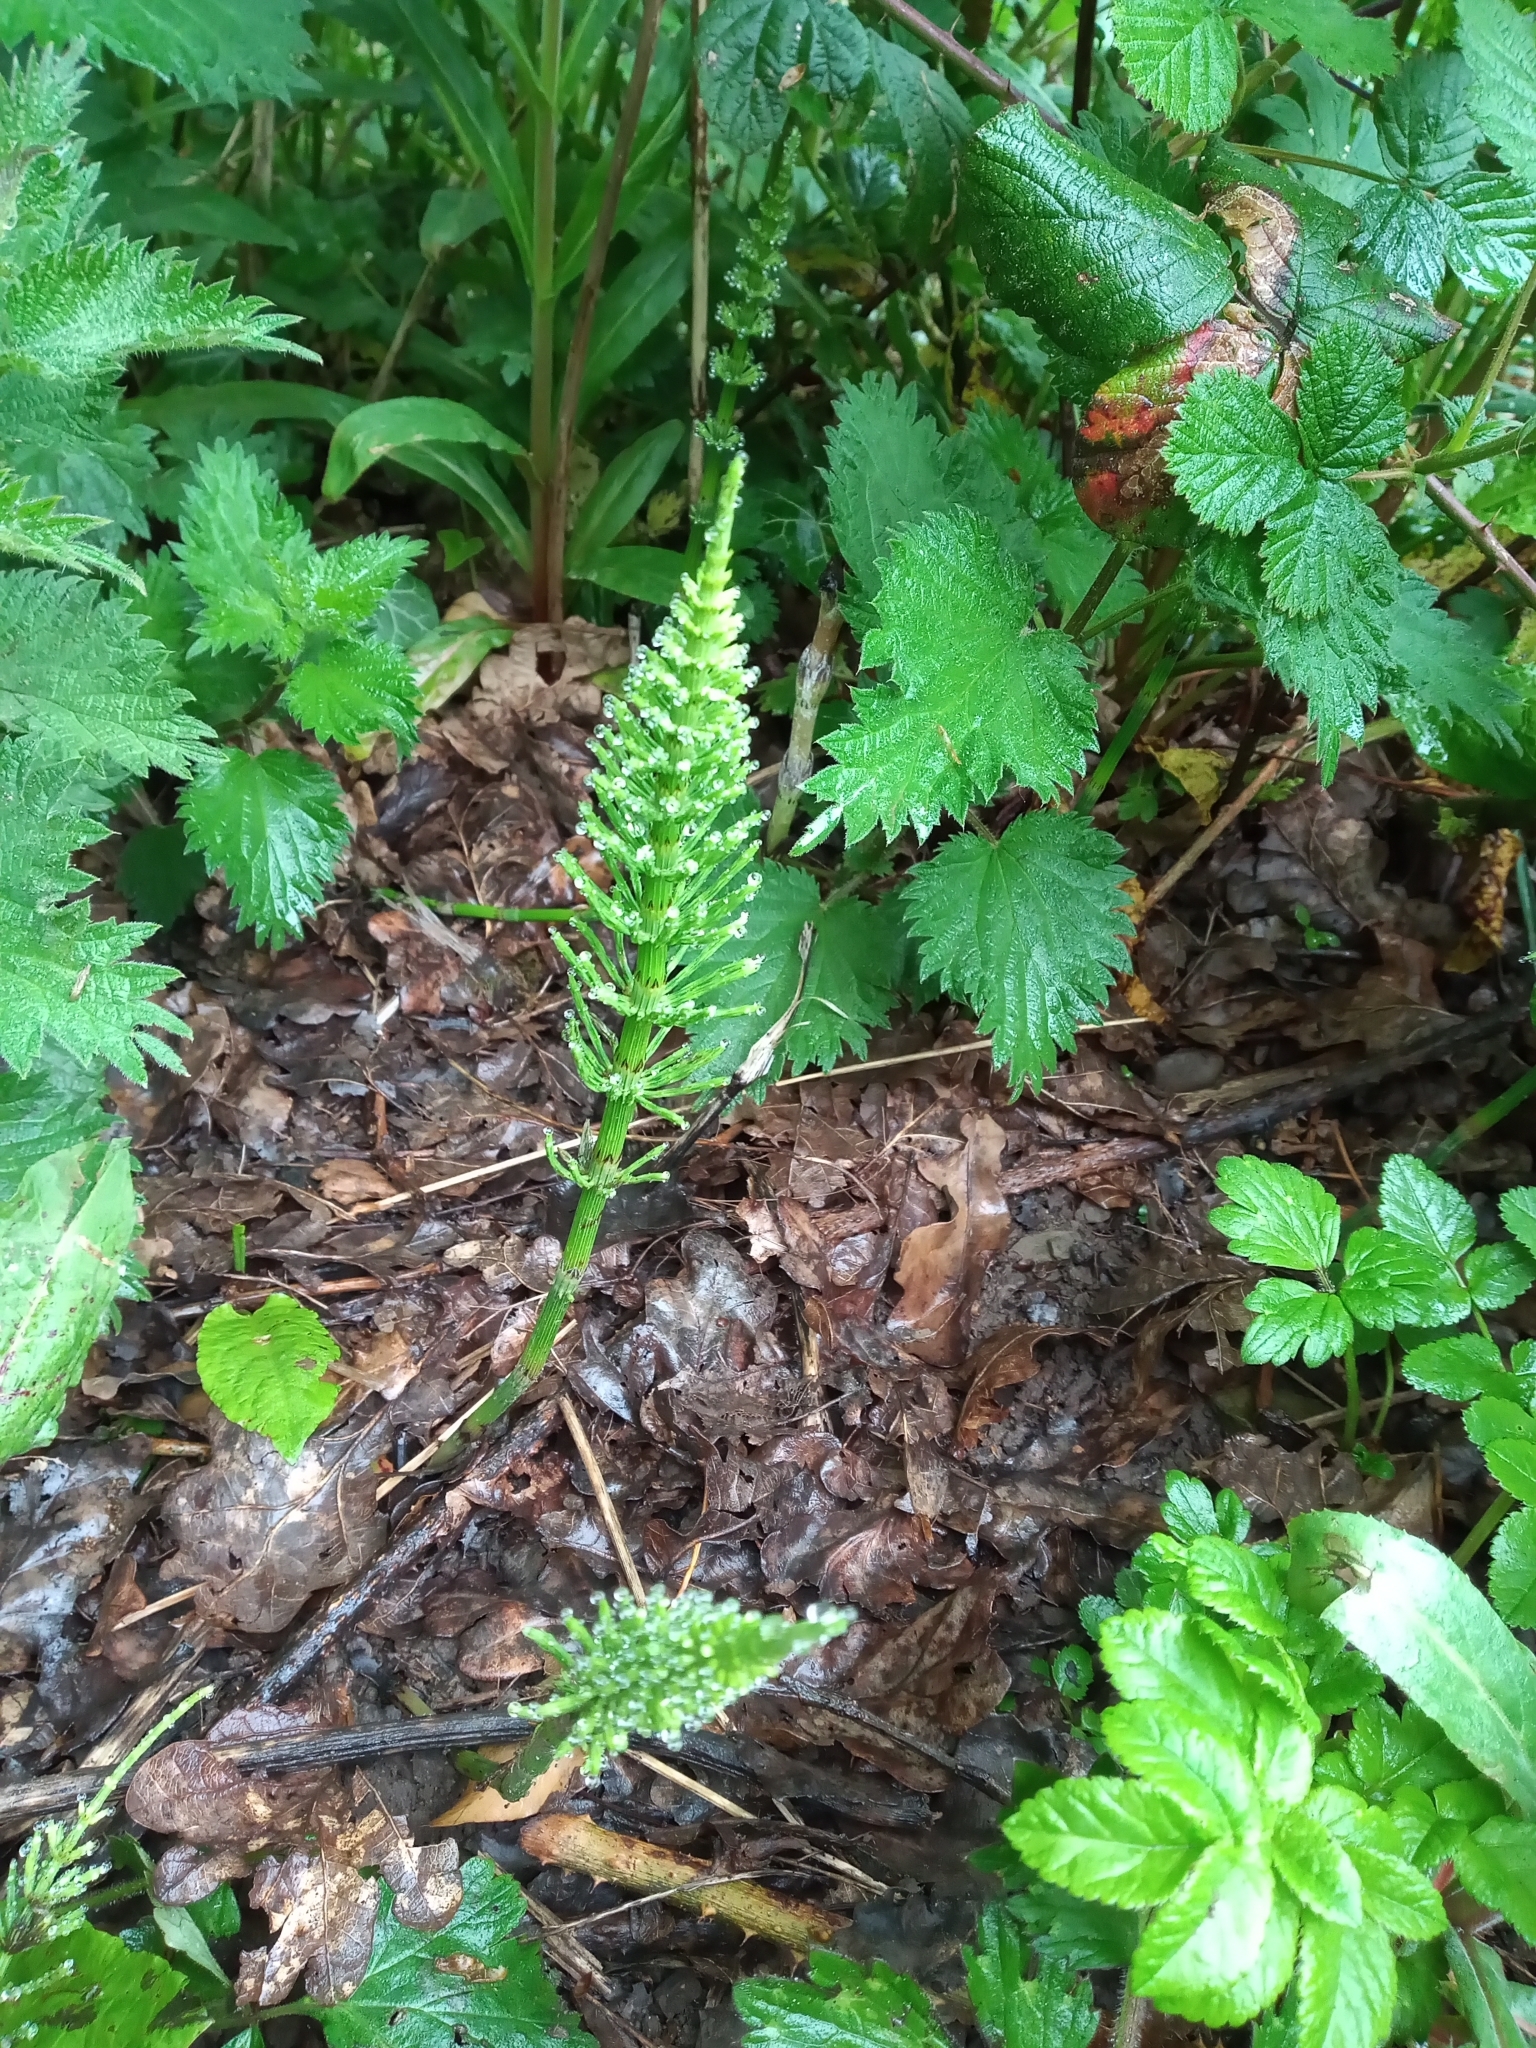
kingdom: Plantae
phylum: Tracheophyta
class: Polypodiopsida
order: Equisetales
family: Equisetaceae
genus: Equisetum
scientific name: Equisetum arvense
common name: Field horsetail
